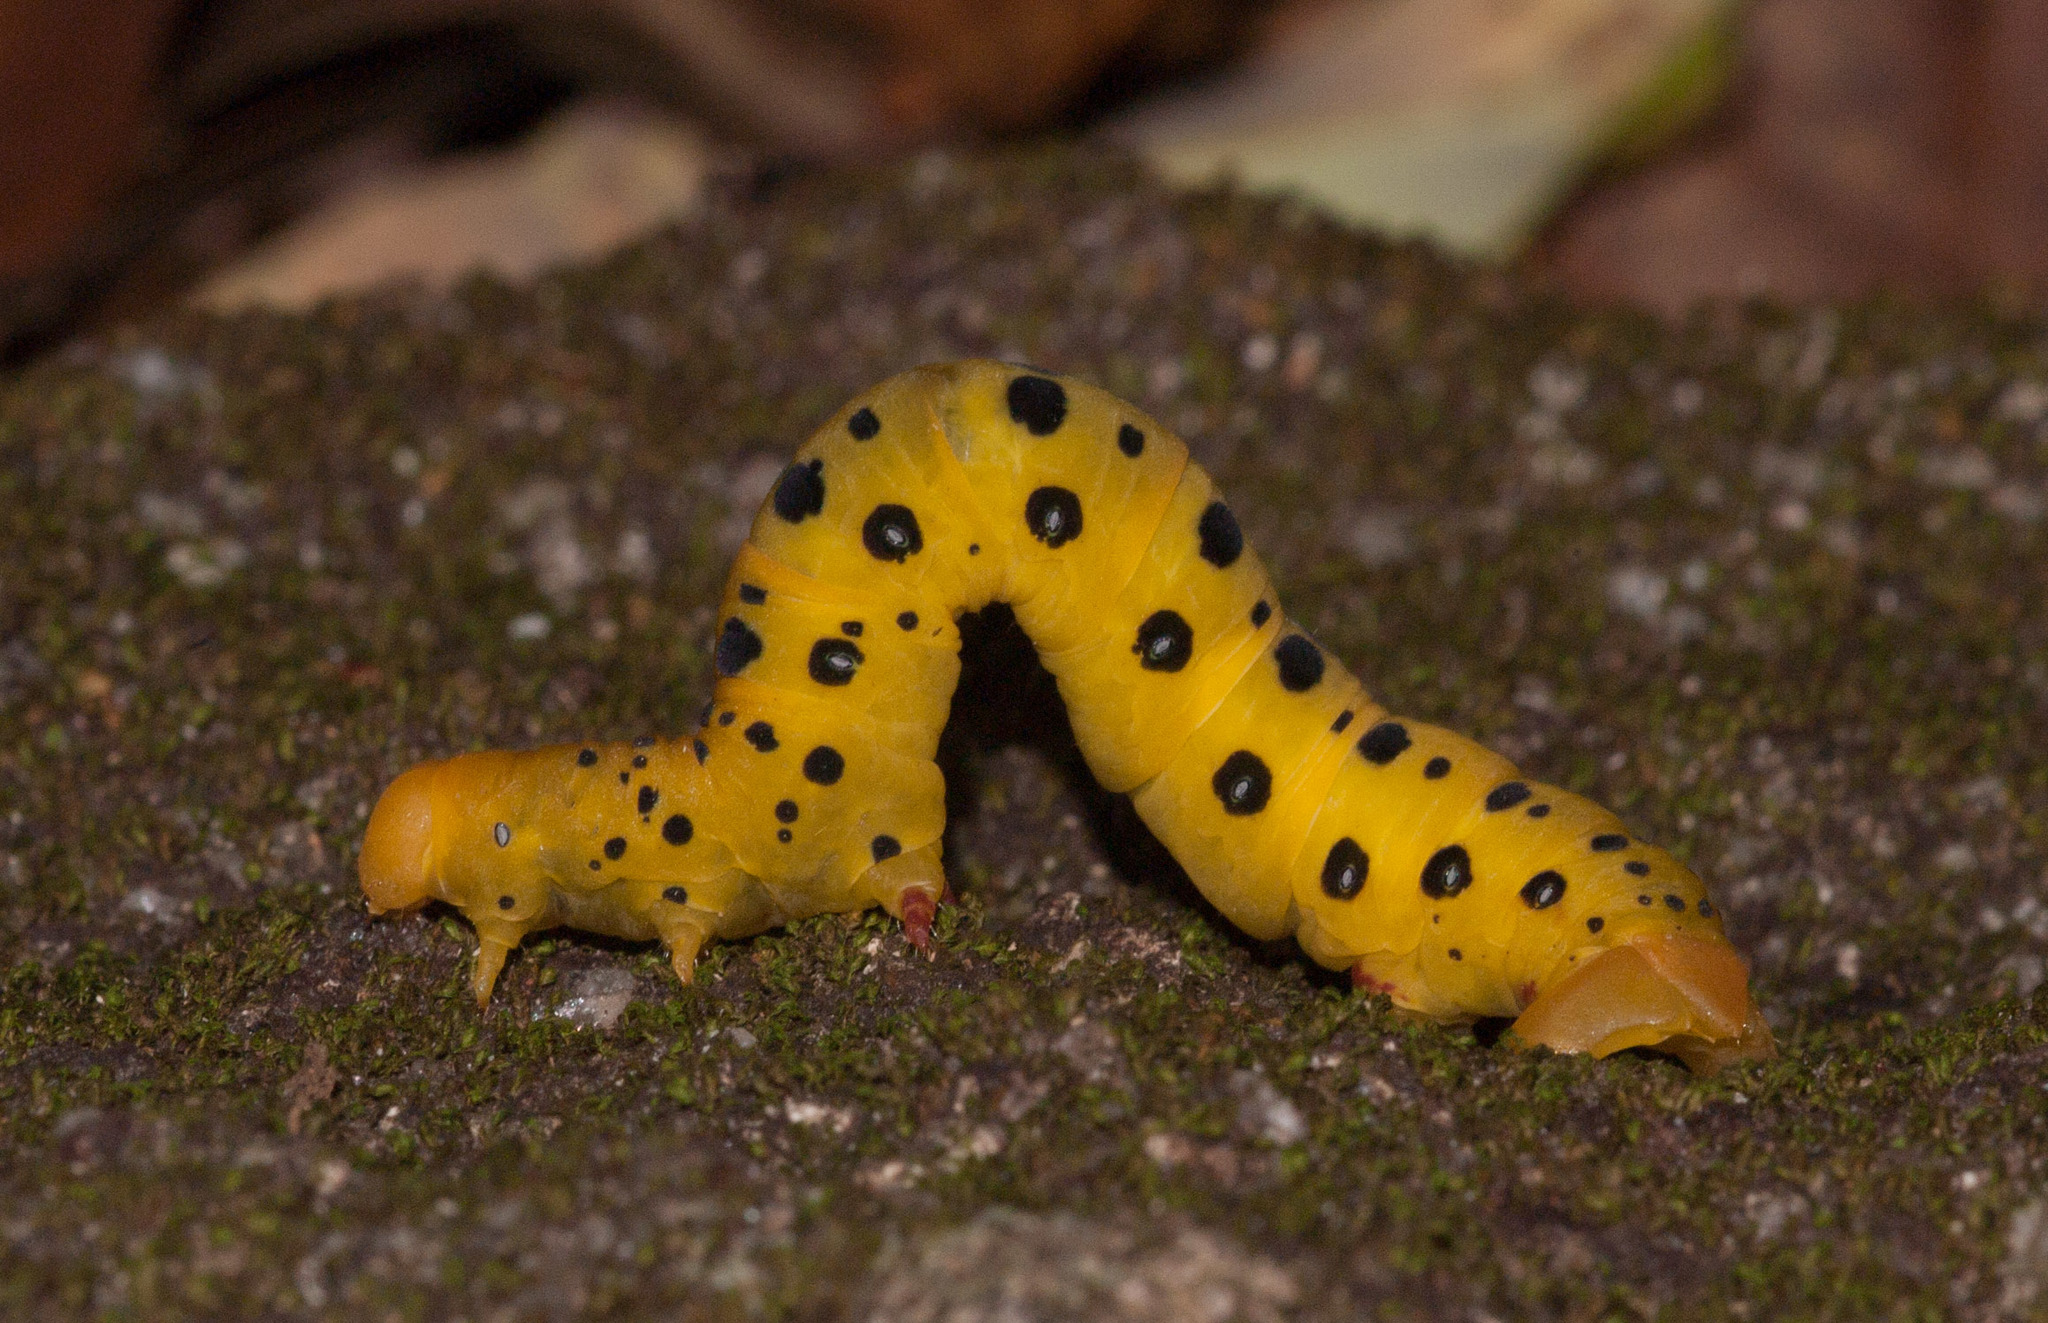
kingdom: Animalia
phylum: Arthropoda
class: Insecta
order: Lepidoptera
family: Geometridae
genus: Dysphania
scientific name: Dysphania numana
